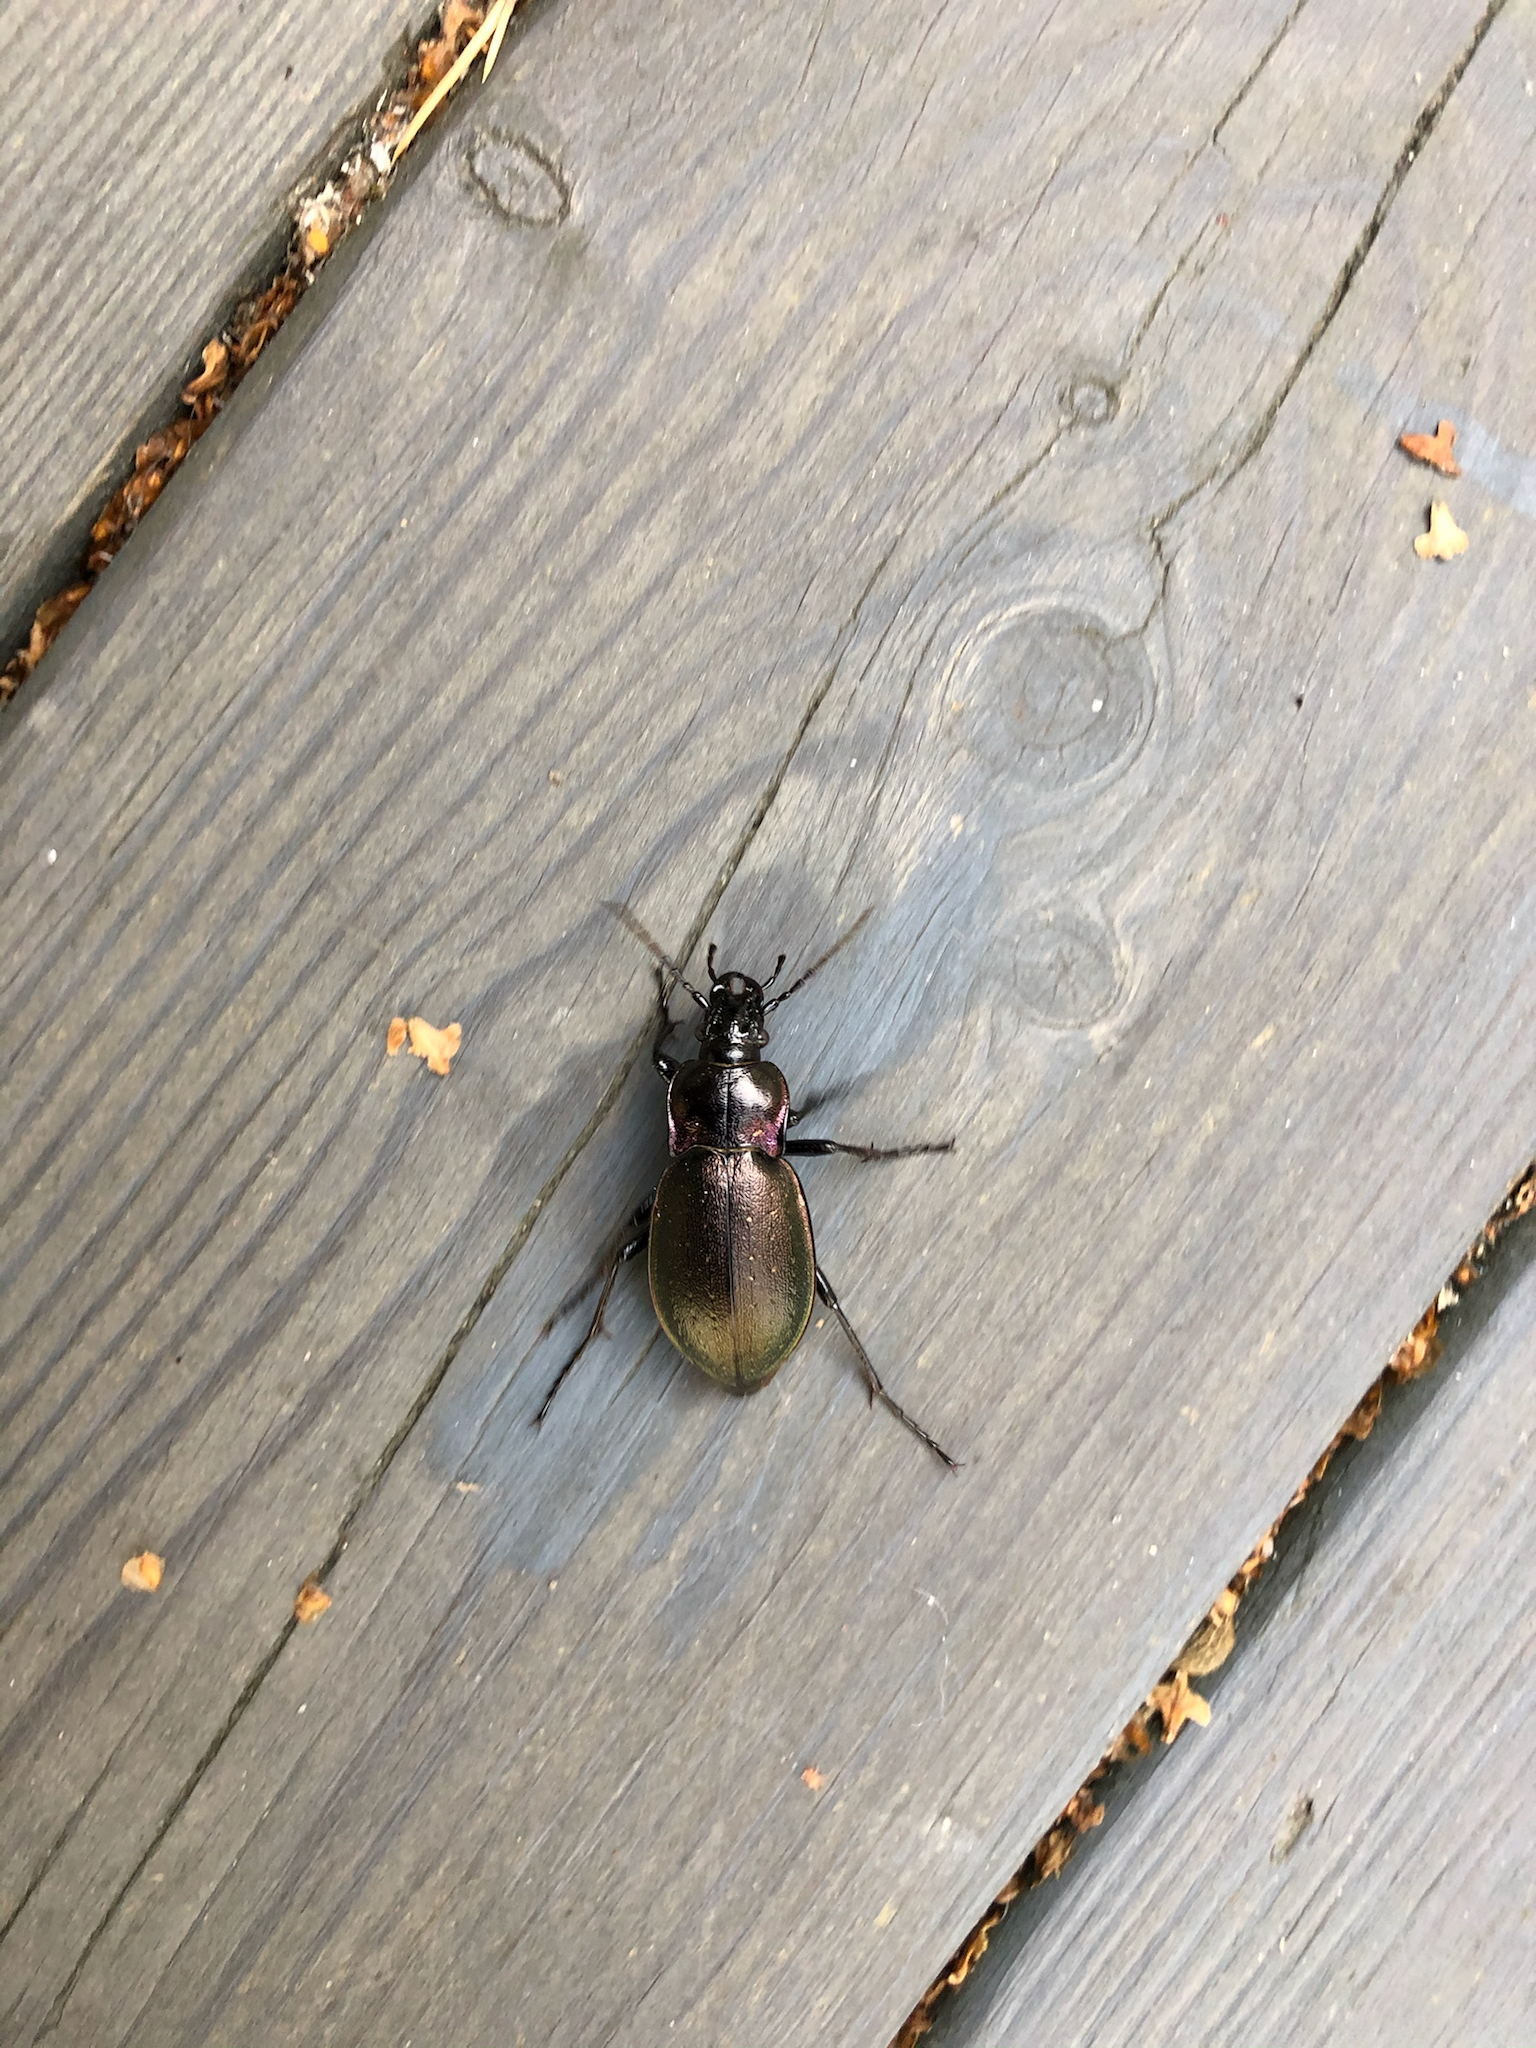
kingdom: Animalia
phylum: Arthropoda
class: Insecta
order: Coleoptera
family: Carabidae
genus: Carabus
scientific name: Carabus nemoralis
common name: European ground beetle
